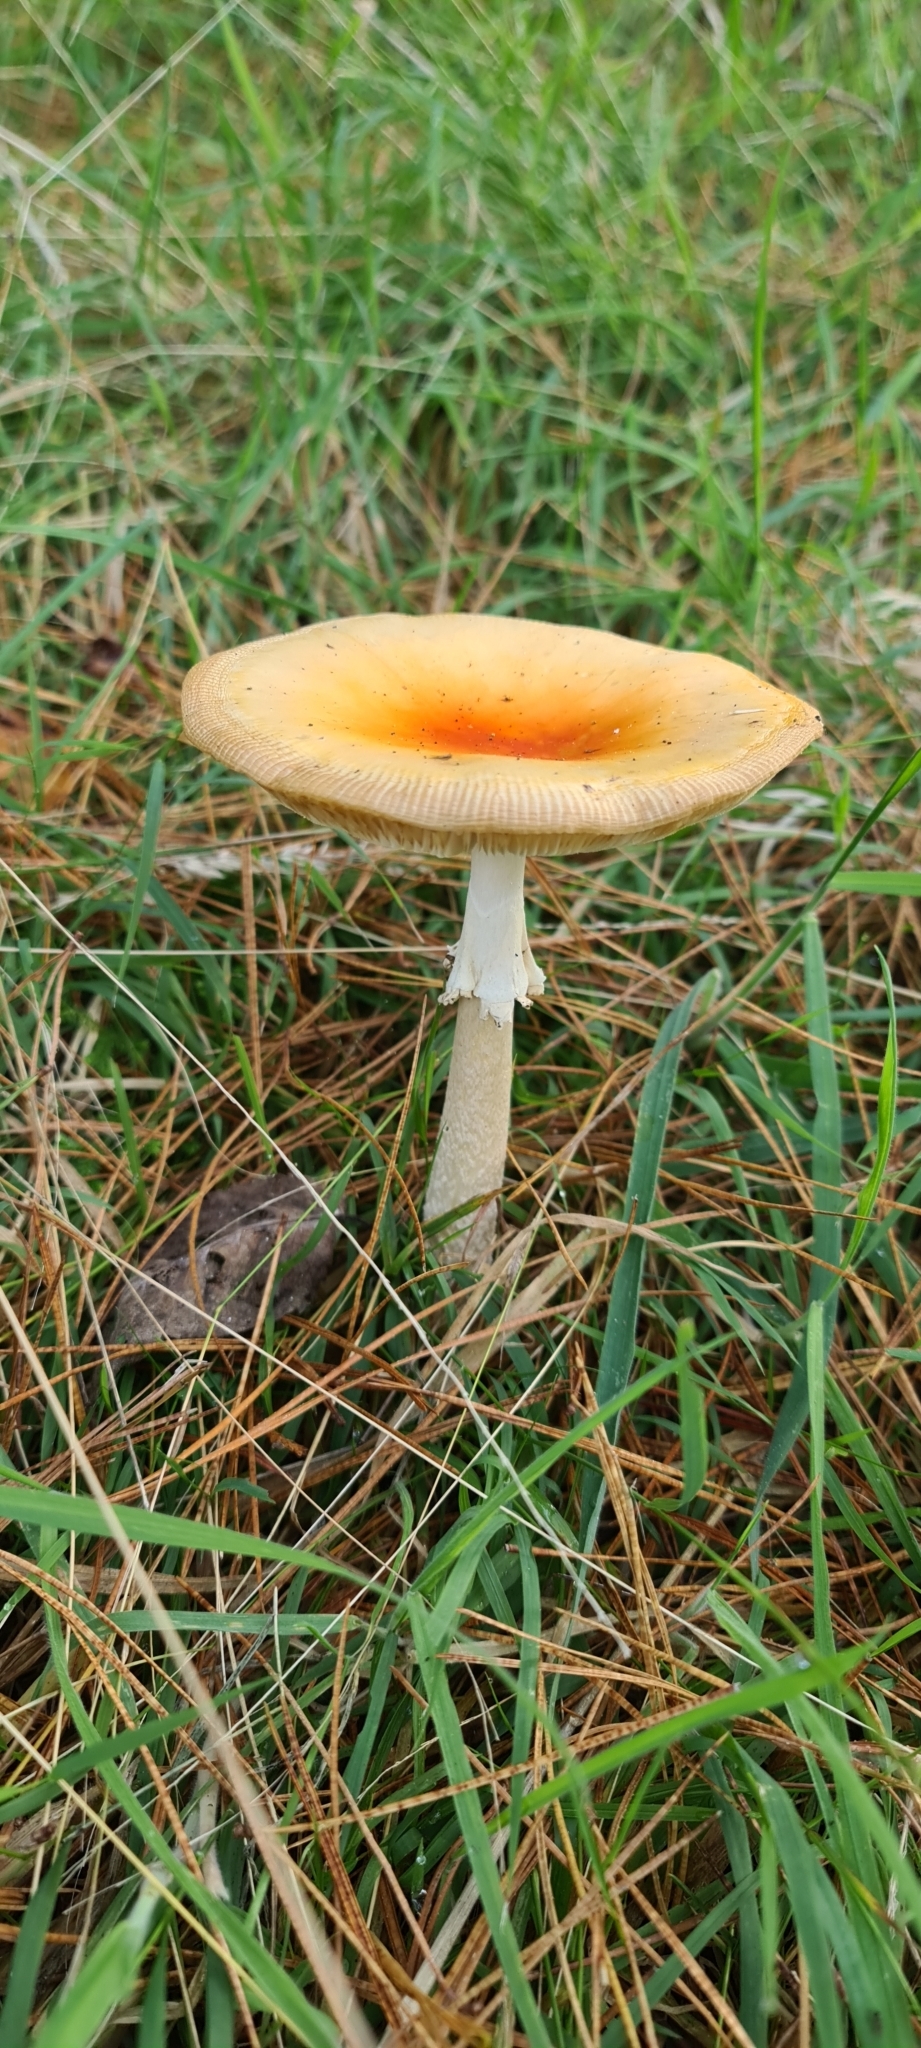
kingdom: Fungi
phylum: Basidiomycota
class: Agaricomycetes
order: Agaricales
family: Amanitaceae
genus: Amanita
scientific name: Amanita muscaria
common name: Fly agaric
